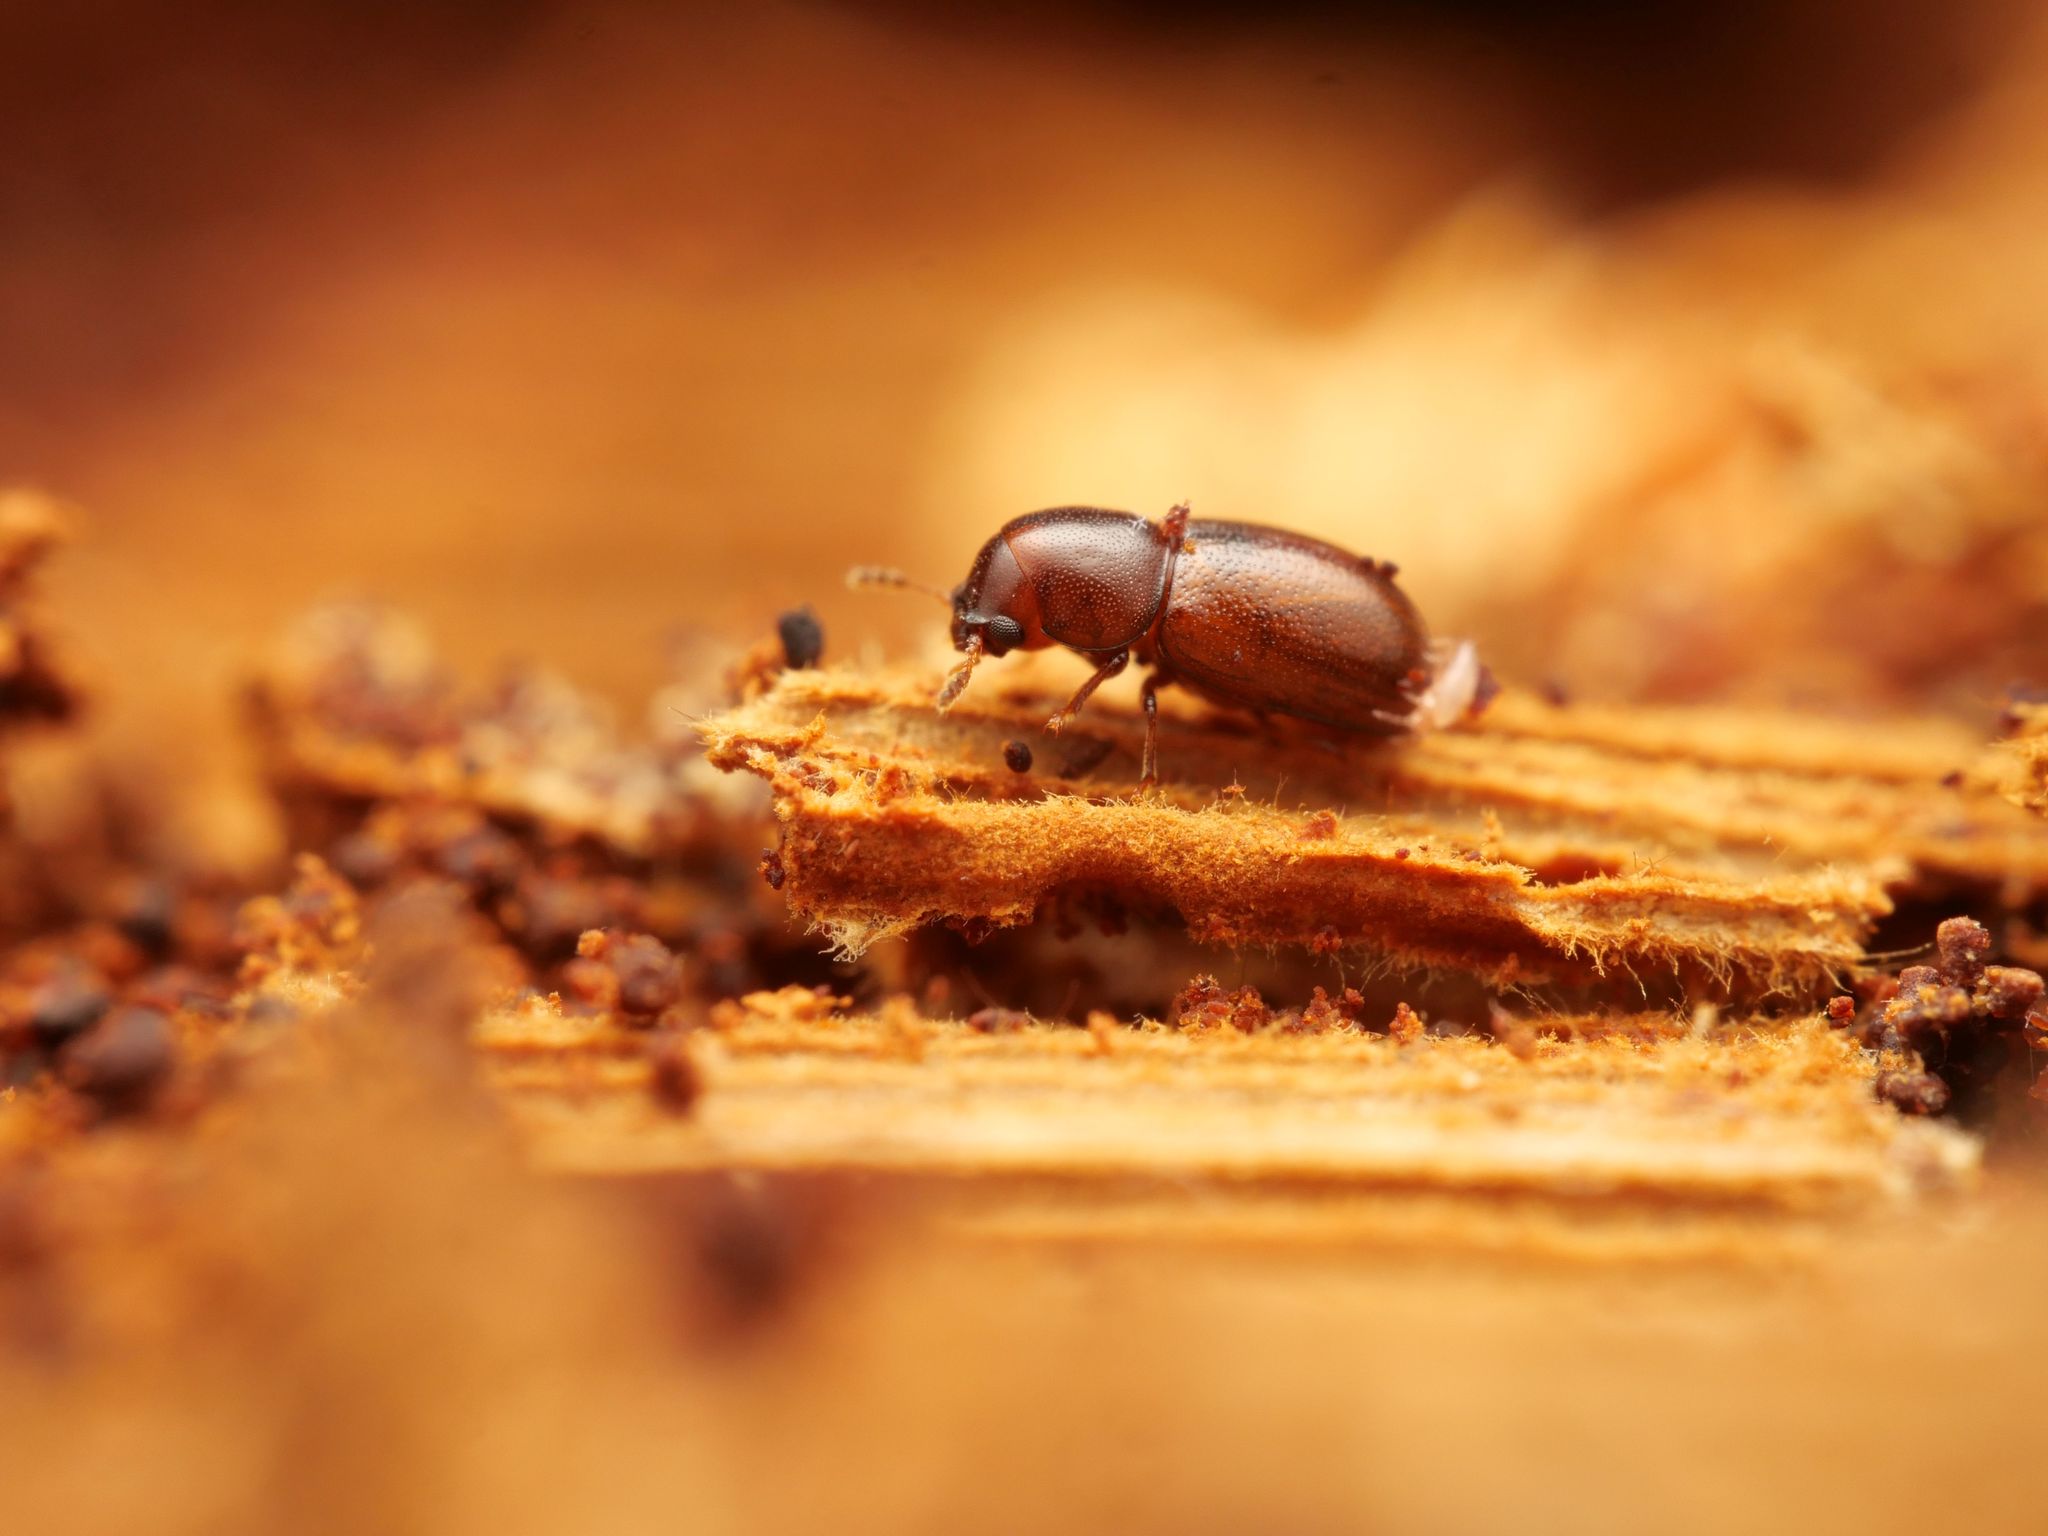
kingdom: Animalia
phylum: Arthropoda
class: Insecta
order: Coleoptera
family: Ciidae
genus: Cis
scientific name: Cis glabratus
